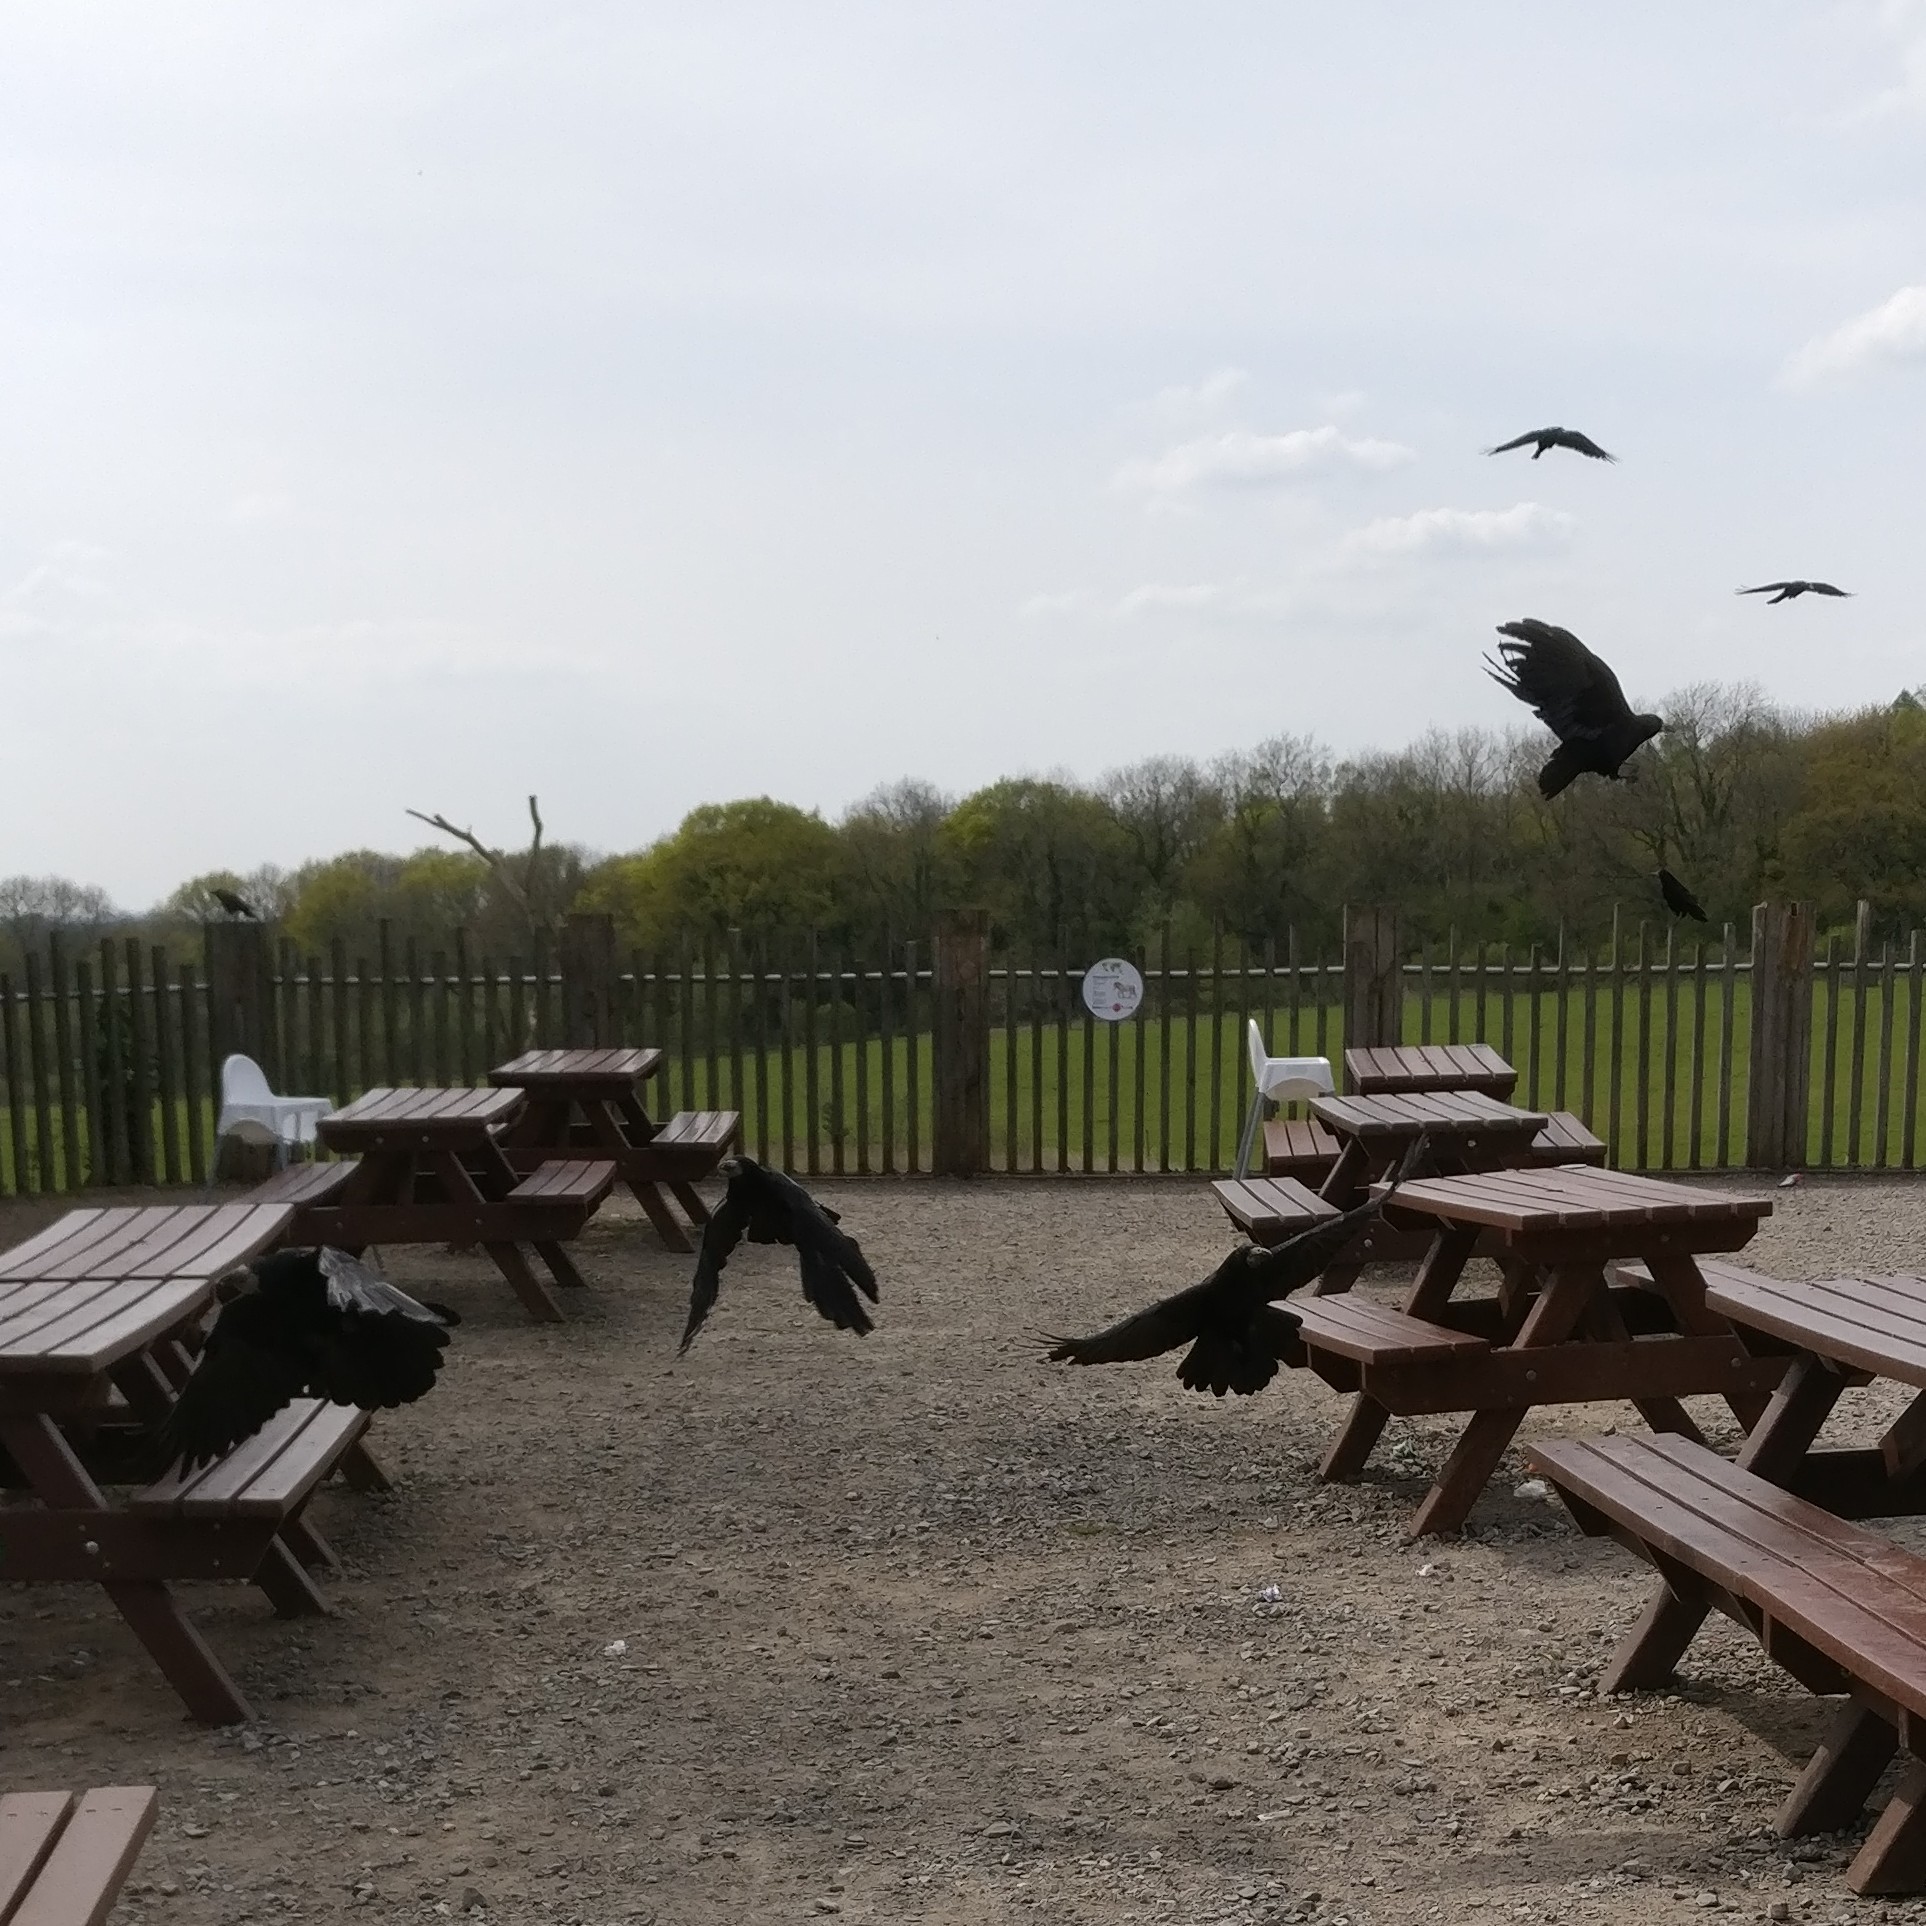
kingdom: Animalia
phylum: Chordata
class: Aves
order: Passeriformes
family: Corvidae
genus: Corvus
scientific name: Corvus frugilegus
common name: Rook
